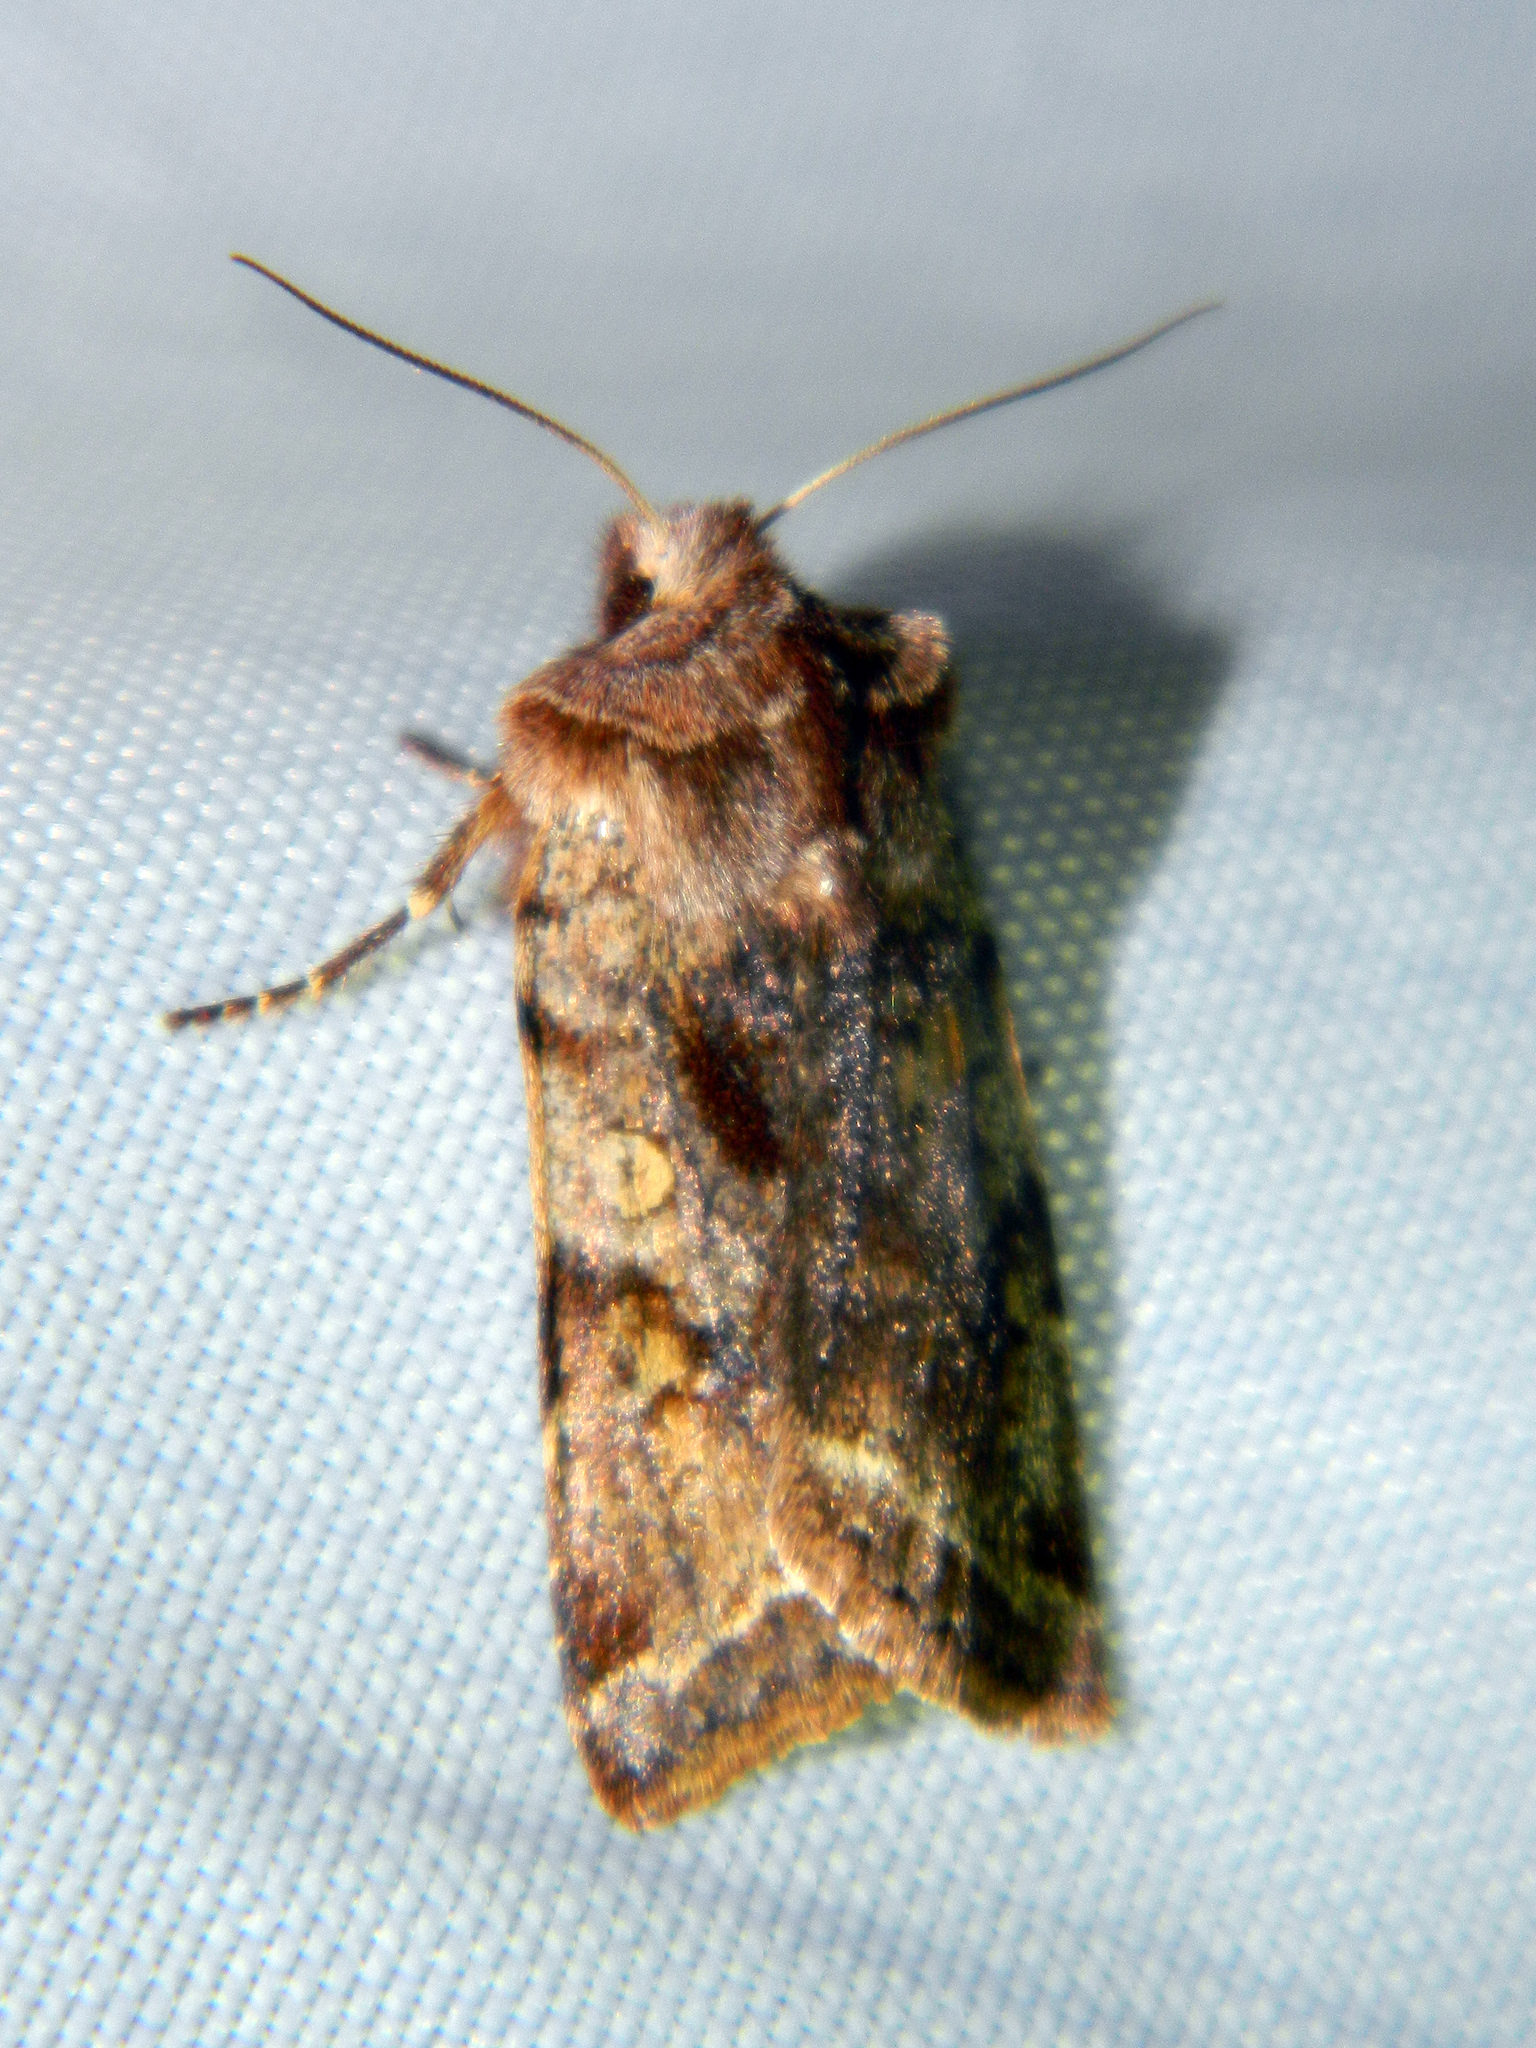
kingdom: Animalia
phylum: Arthropoda
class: Insecta
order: Lepidoptera
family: Noctuidae
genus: Cerastis
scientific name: Cerastis salicarum
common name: Willow dart
